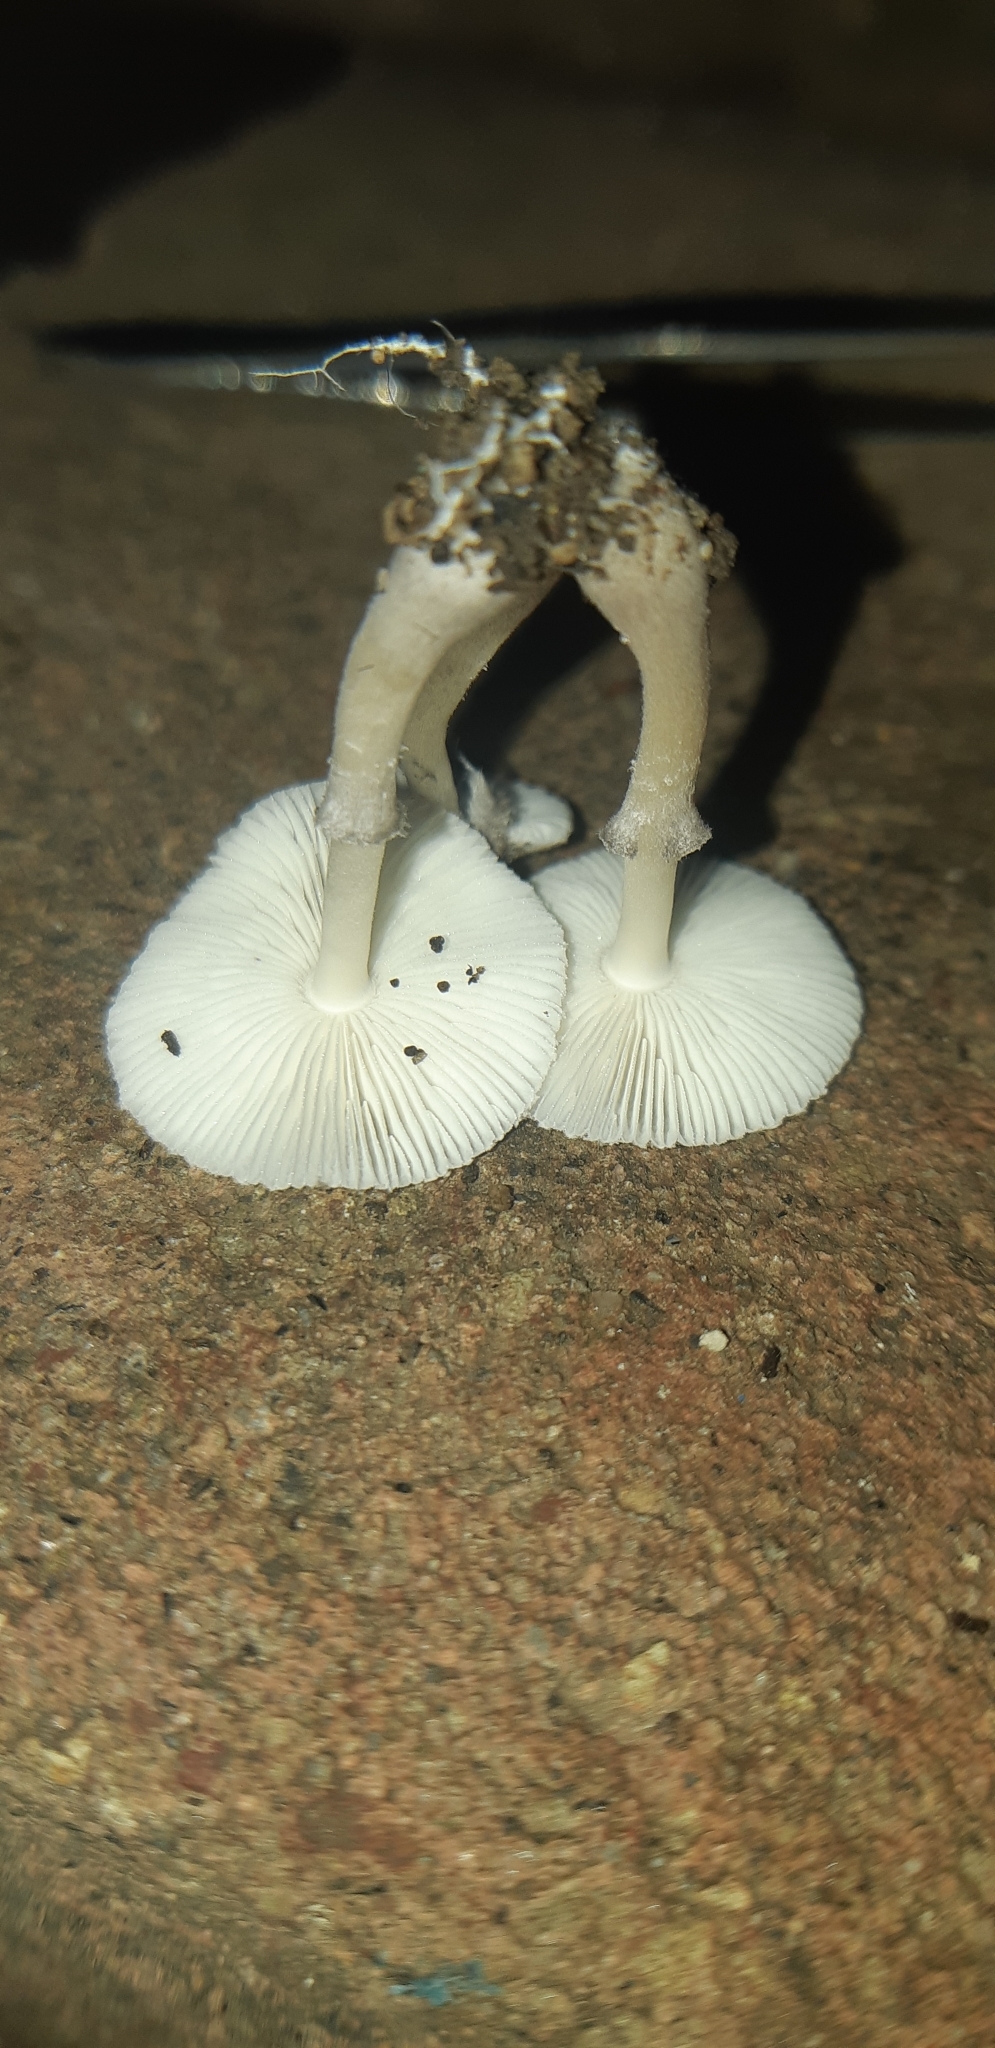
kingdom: Fungi
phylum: Basidiomycota
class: Agaricomycetes
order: Agaricales
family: Agaricaceae
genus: Leucocoprinus
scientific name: Leucocoprinus heinemannii
